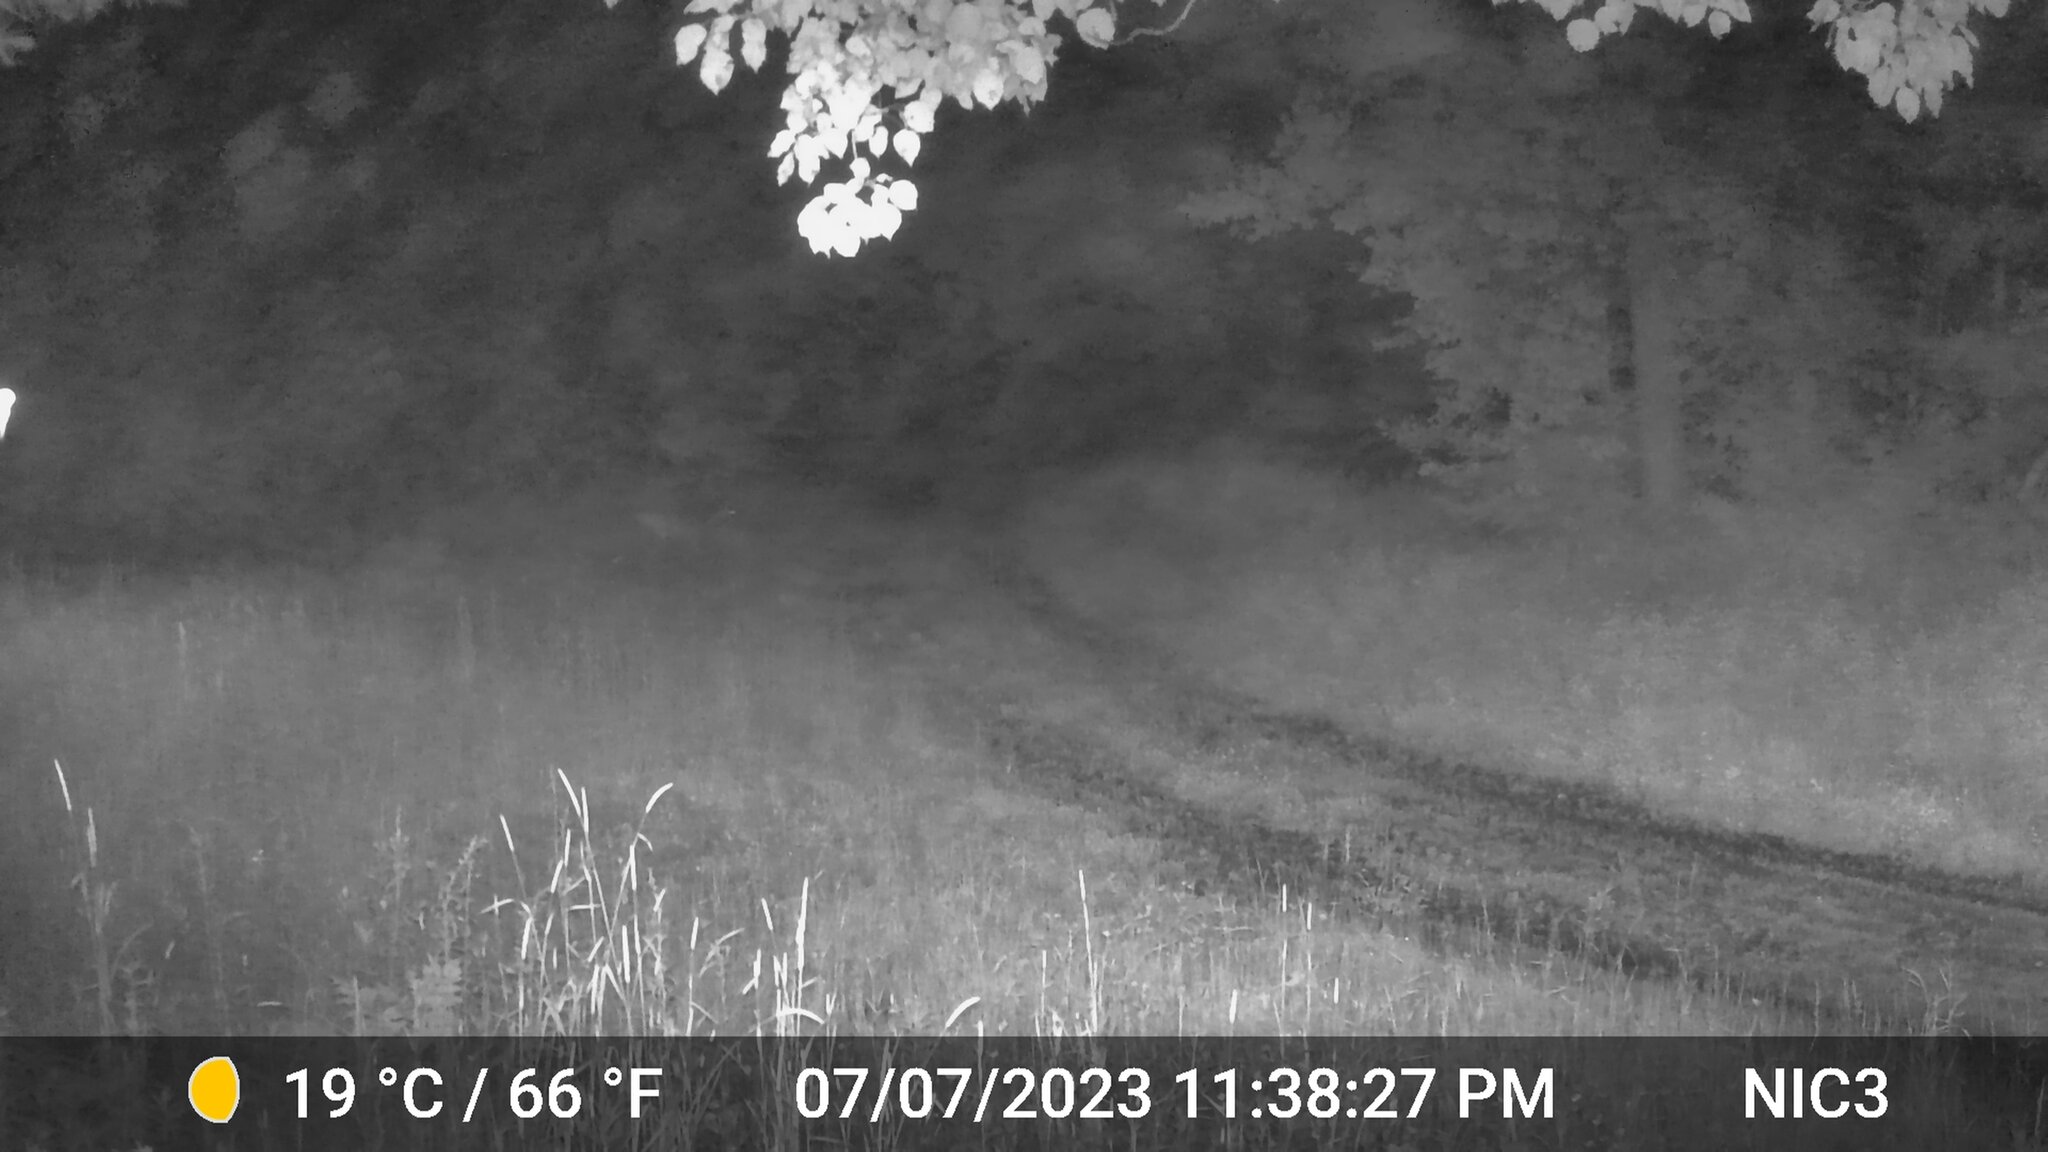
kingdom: Animalia
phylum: Chordata
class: Mammalia
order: Artiodactyla
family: Cervidae
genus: Odocoileus
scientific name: Odocoileus virginianus
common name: White-tailed deer
